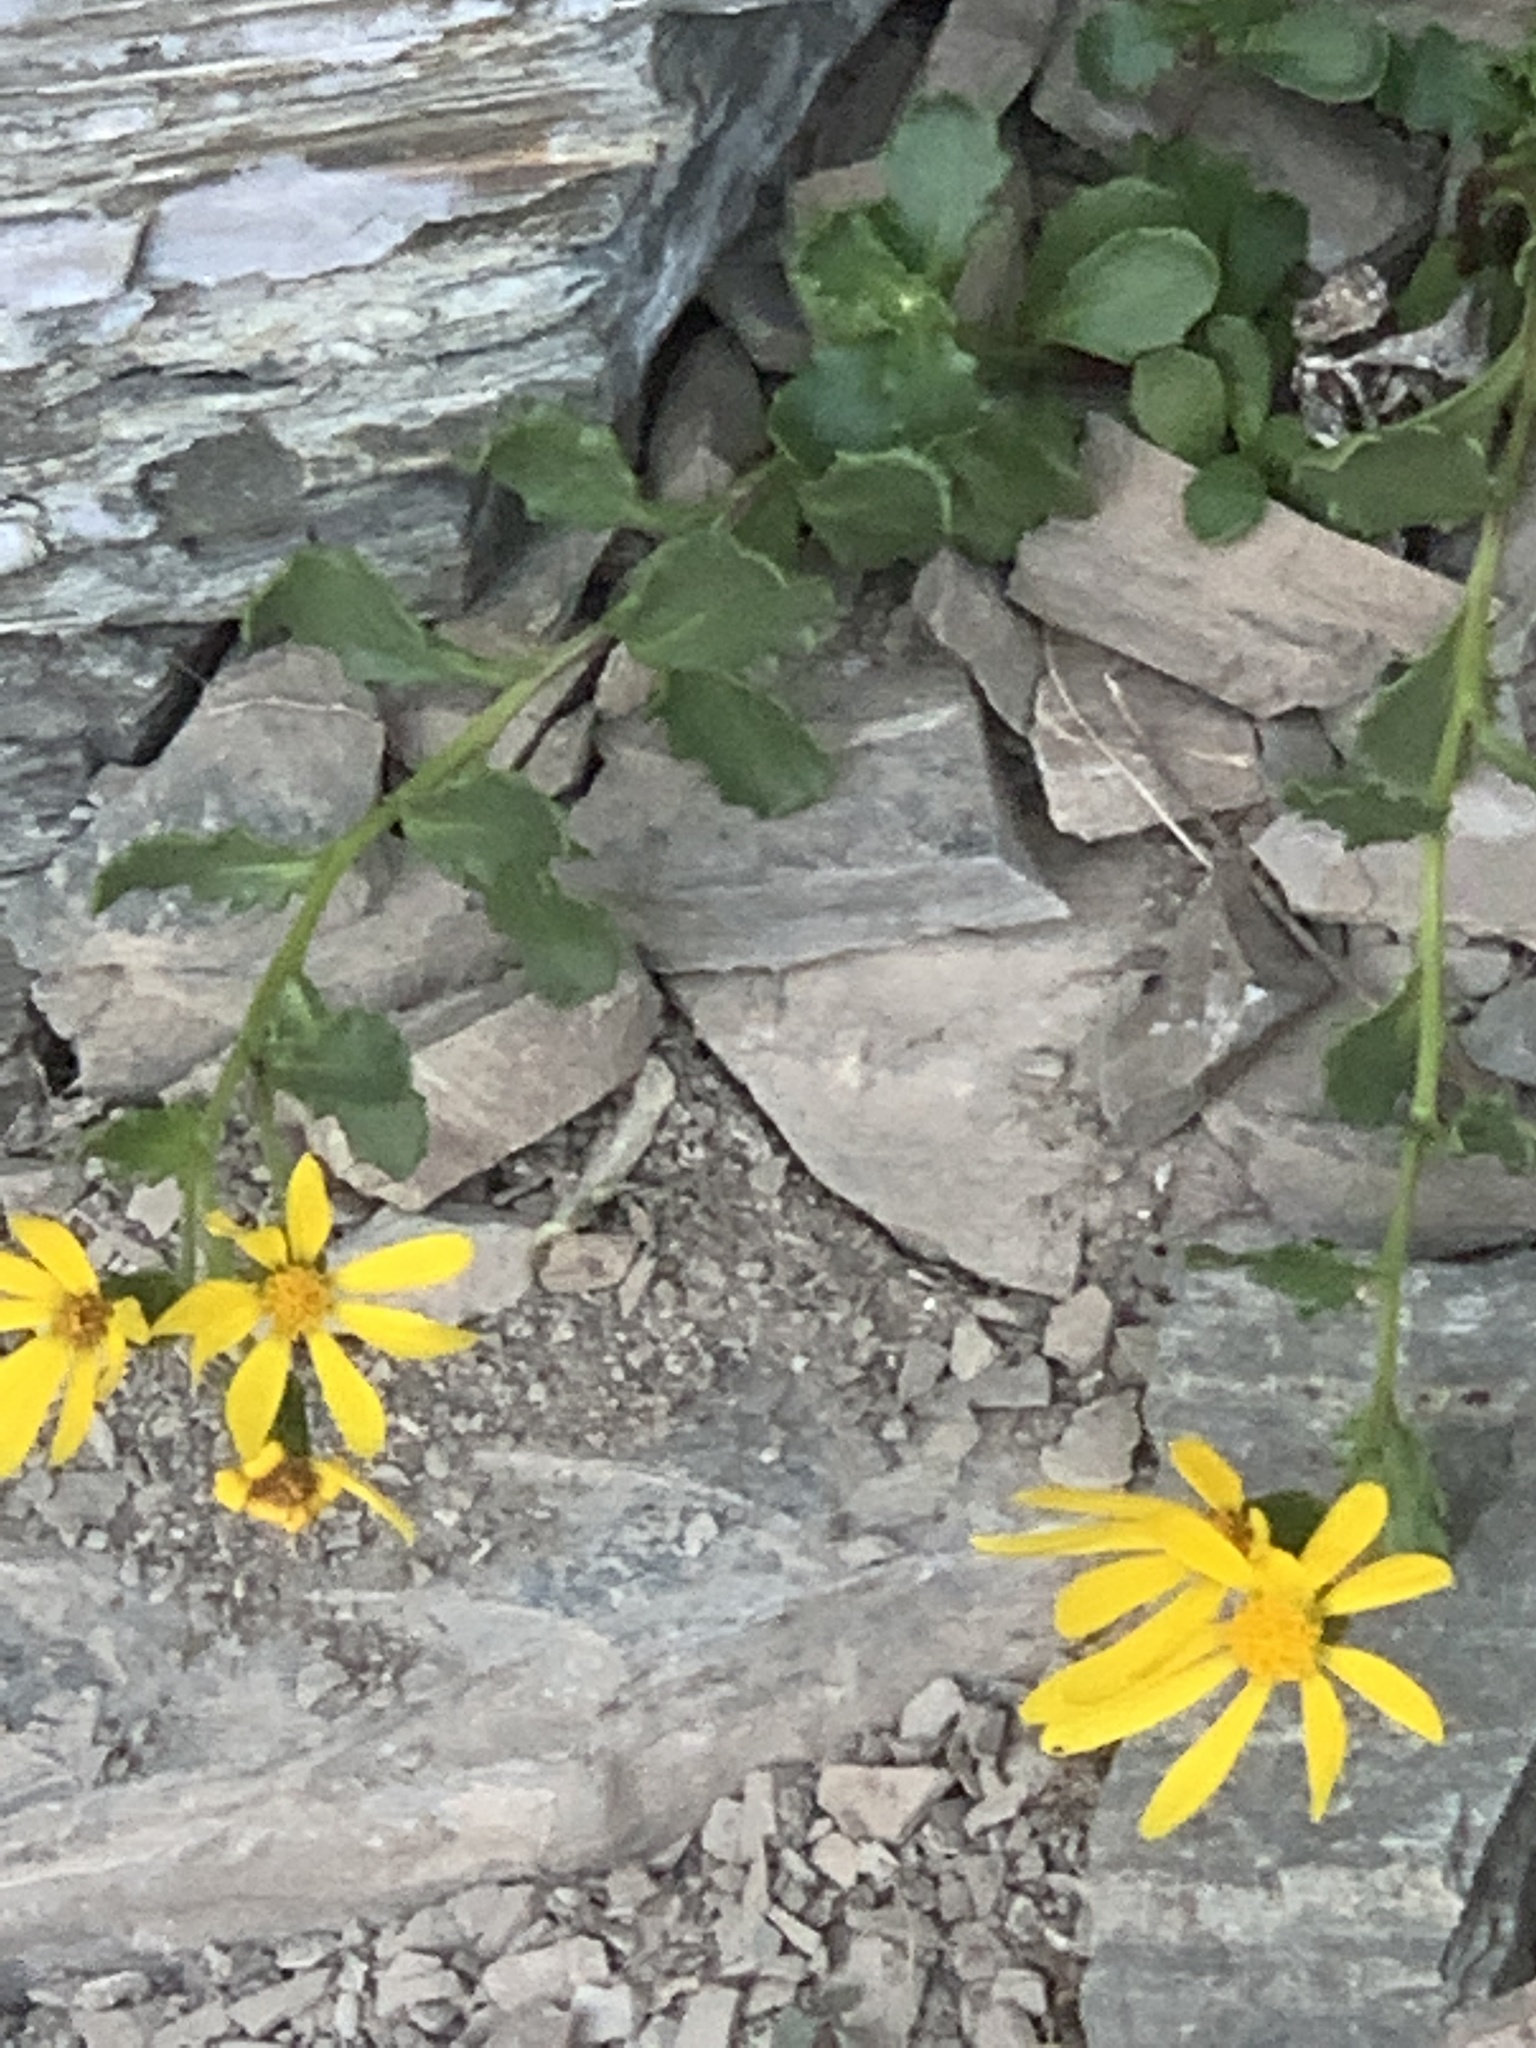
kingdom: Plantae
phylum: Tracheophyta
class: Magnoliopsida
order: Asterales
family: Asteraceae
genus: Senecio
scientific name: Senecio fremontii
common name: Fremont's groundsel
